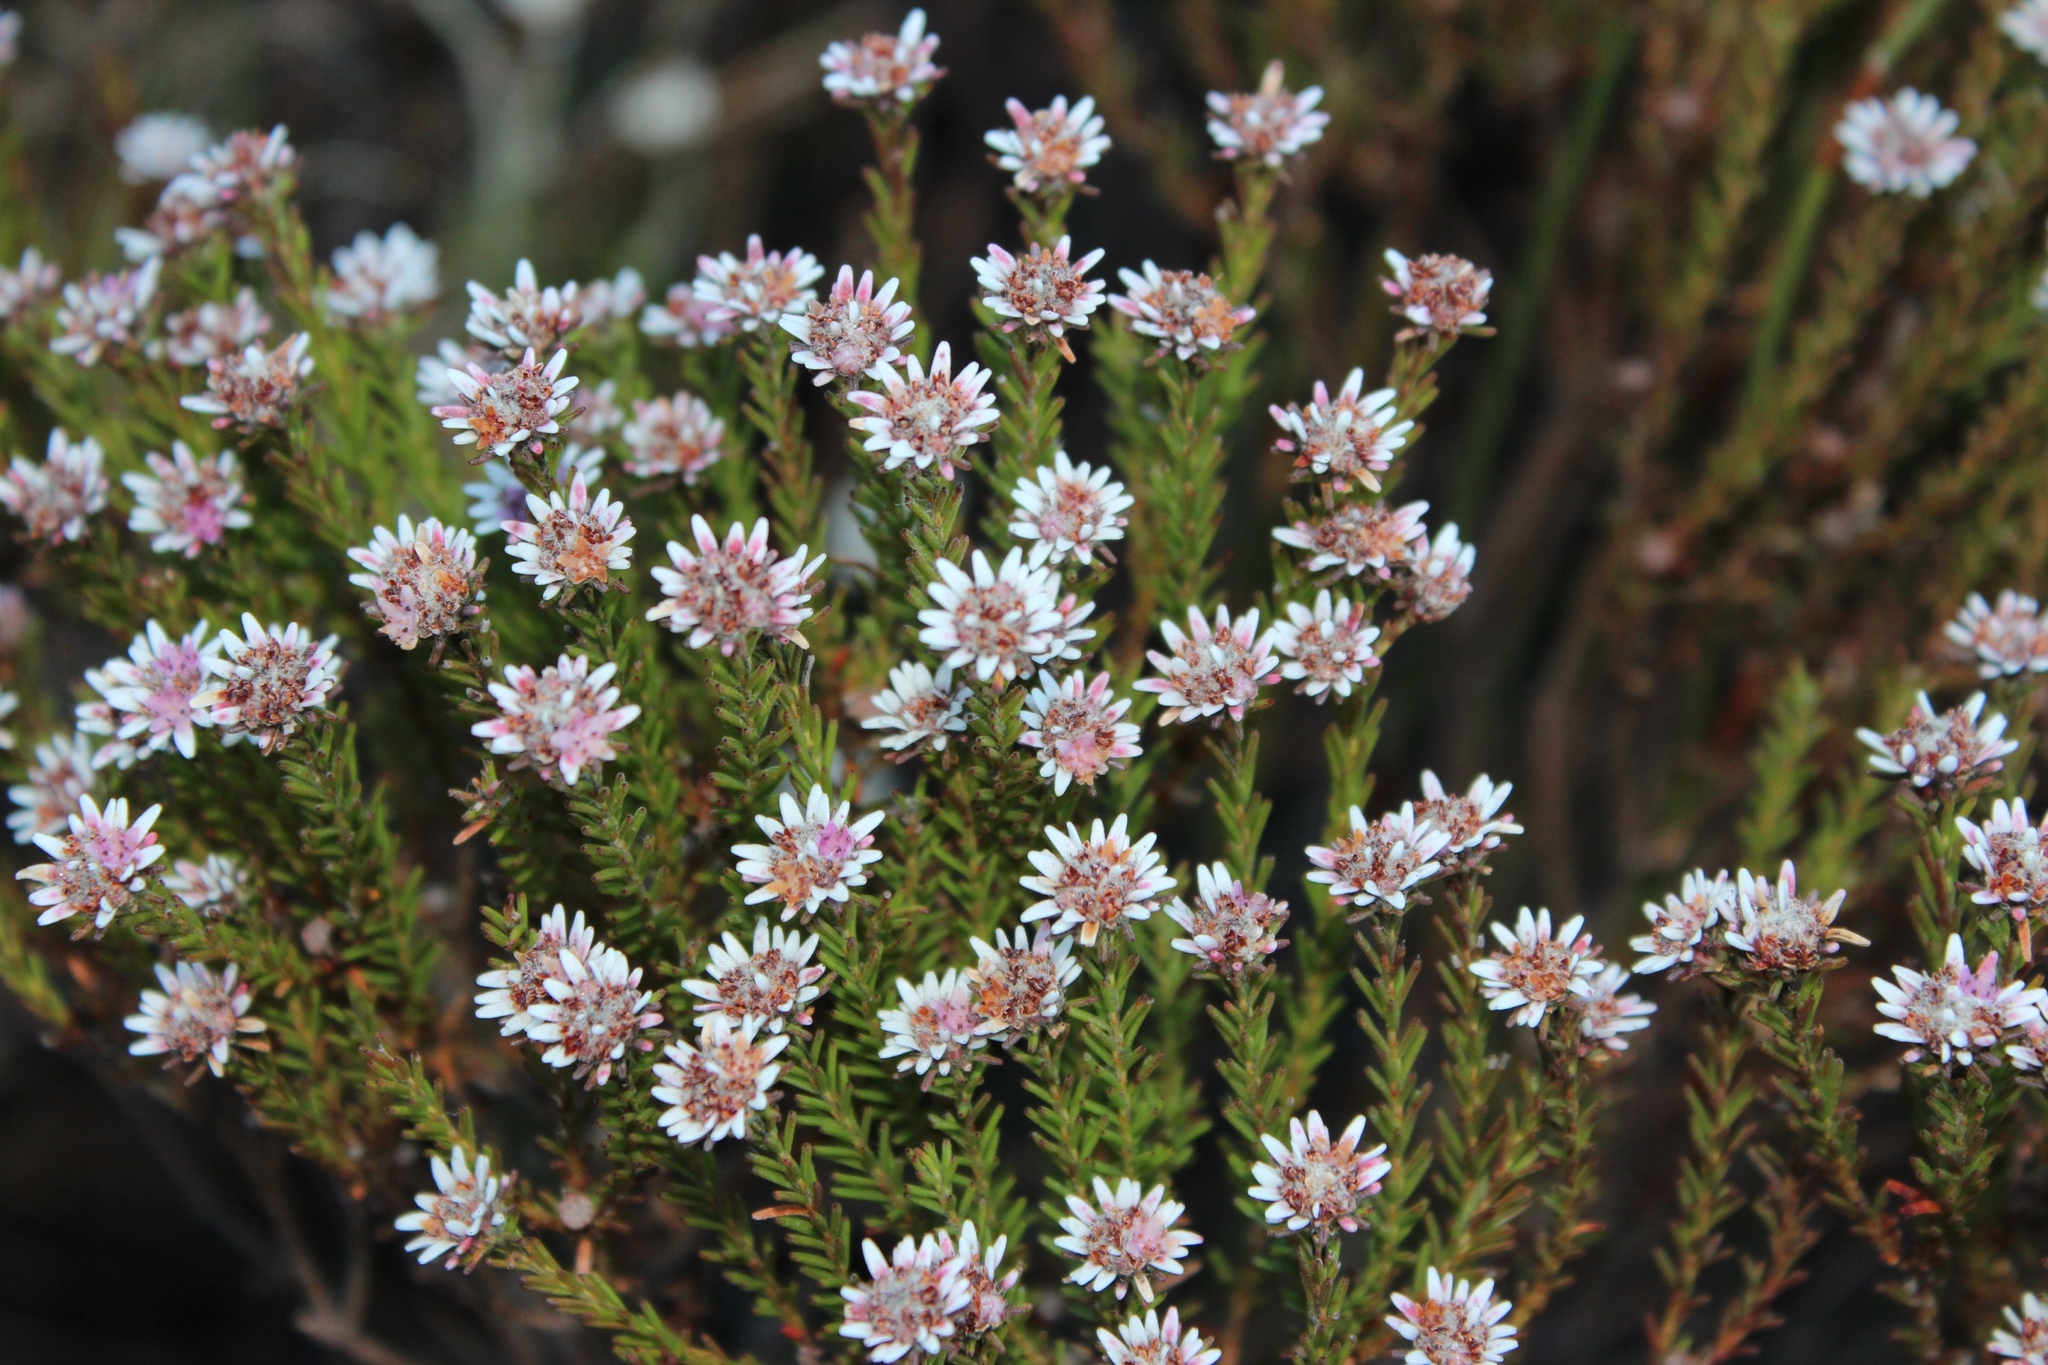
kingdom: Plantae
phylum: Tracheophyta
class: Magnoliopsida
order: Bruniales
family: Bruniaceae
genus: Staavia
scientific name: Staavia radiata
